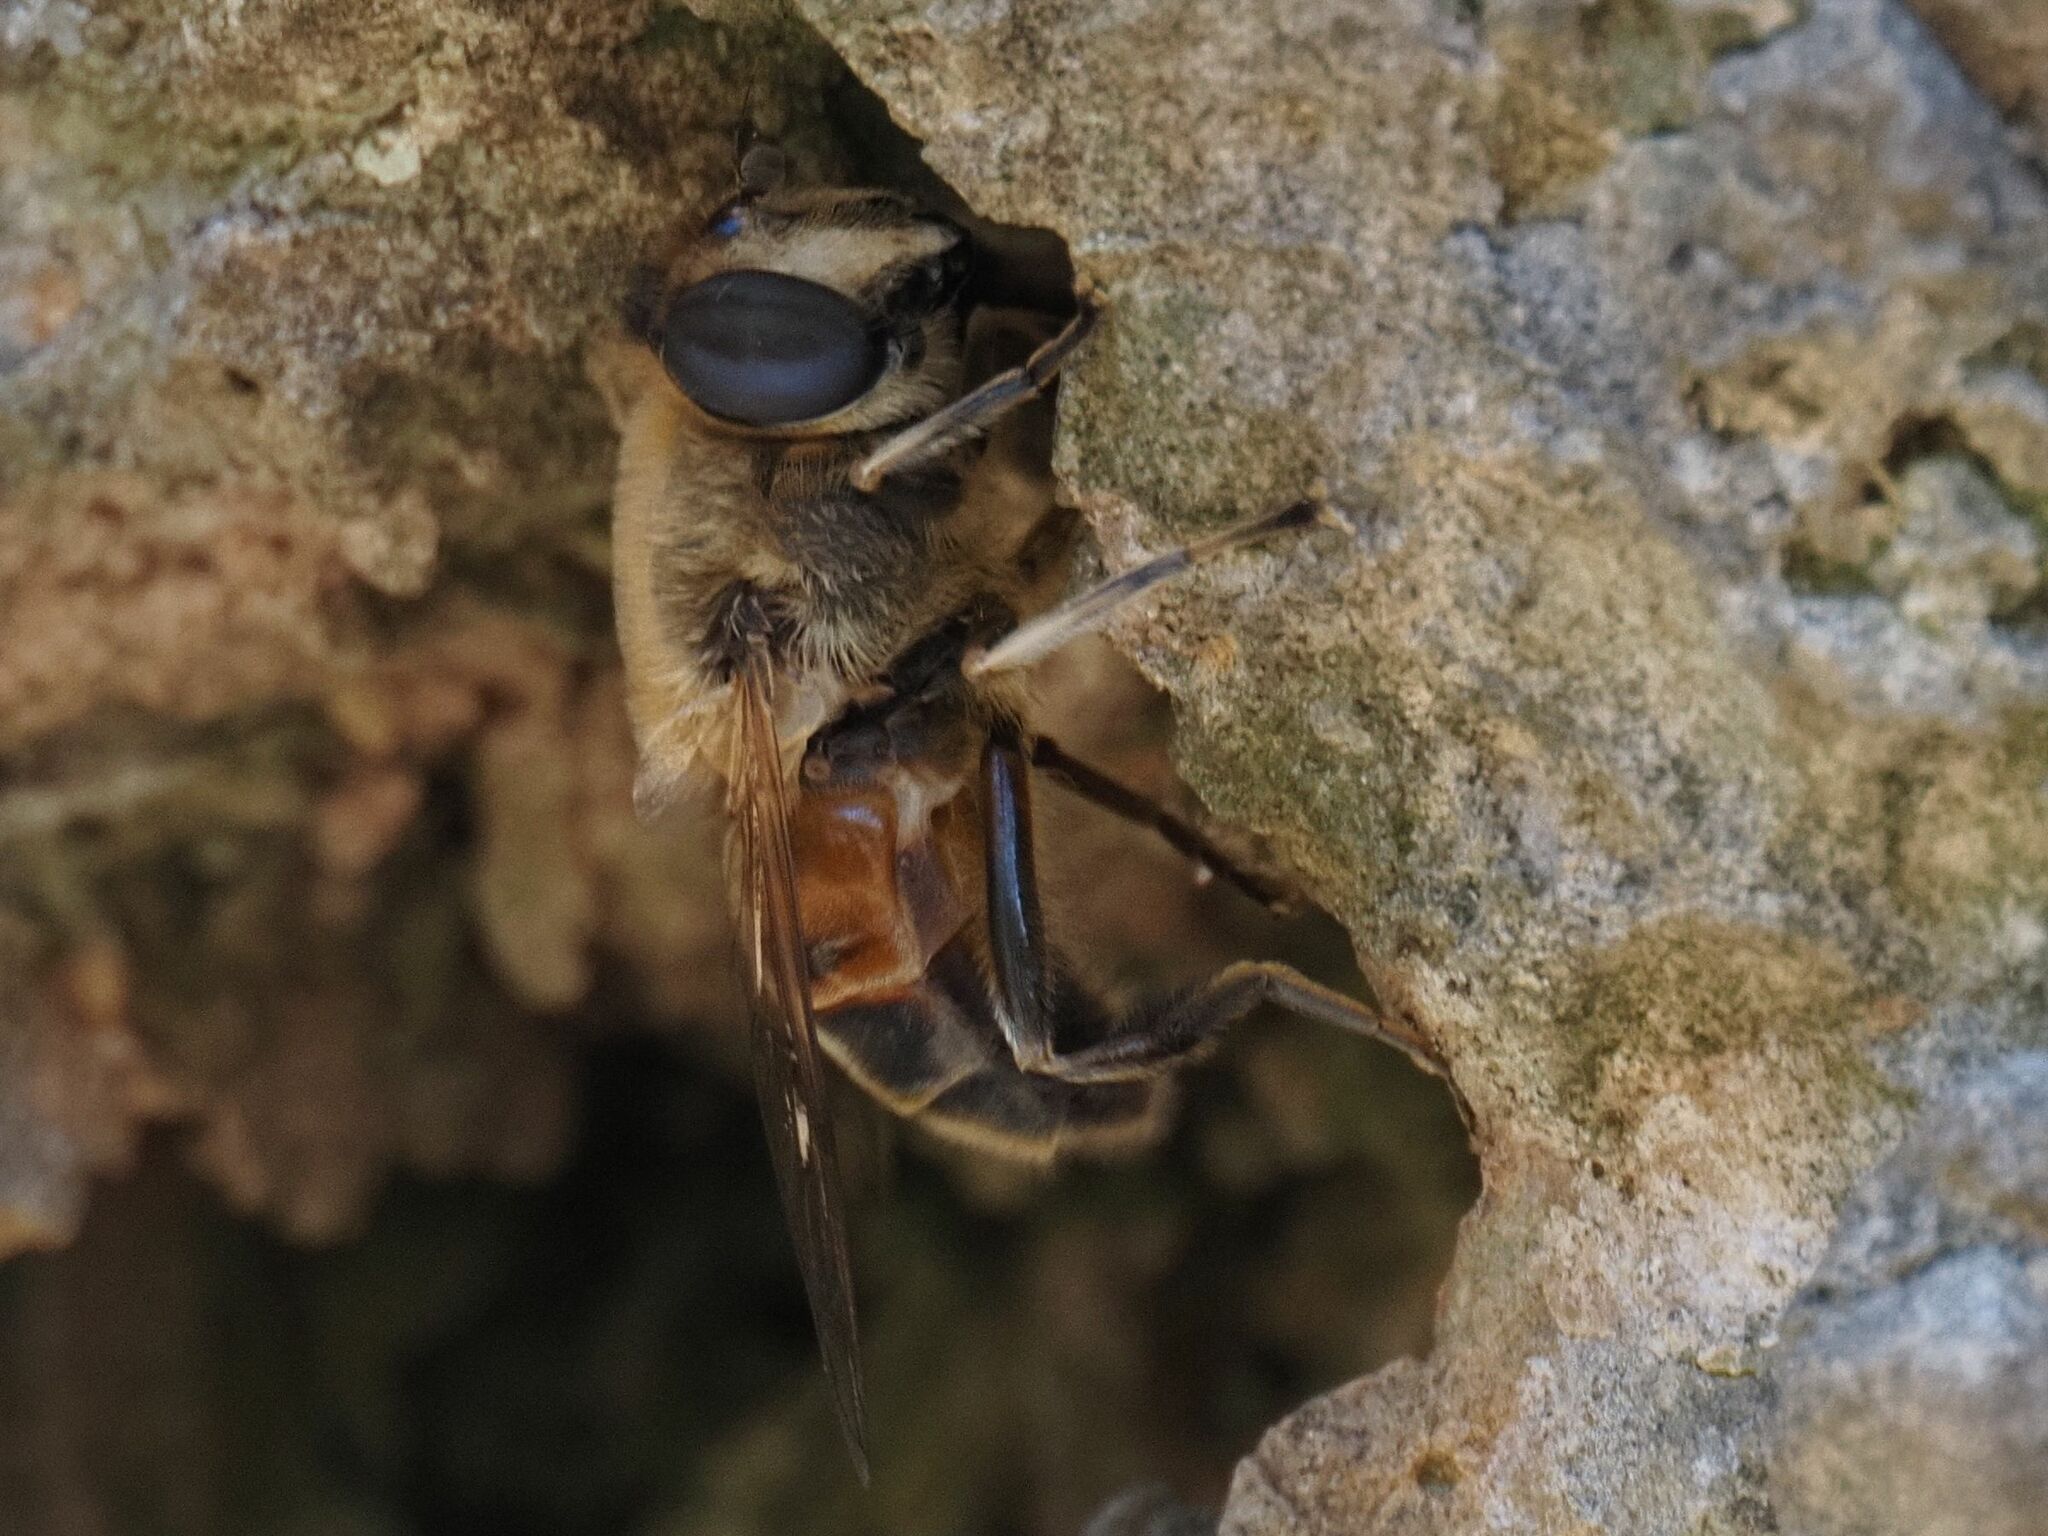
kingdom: Animalia
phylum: Arthropoda
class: Insecta
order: Diptera
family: Syrphidae
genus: Eristalis
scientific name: Eristalis tenax
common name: Drone fly
